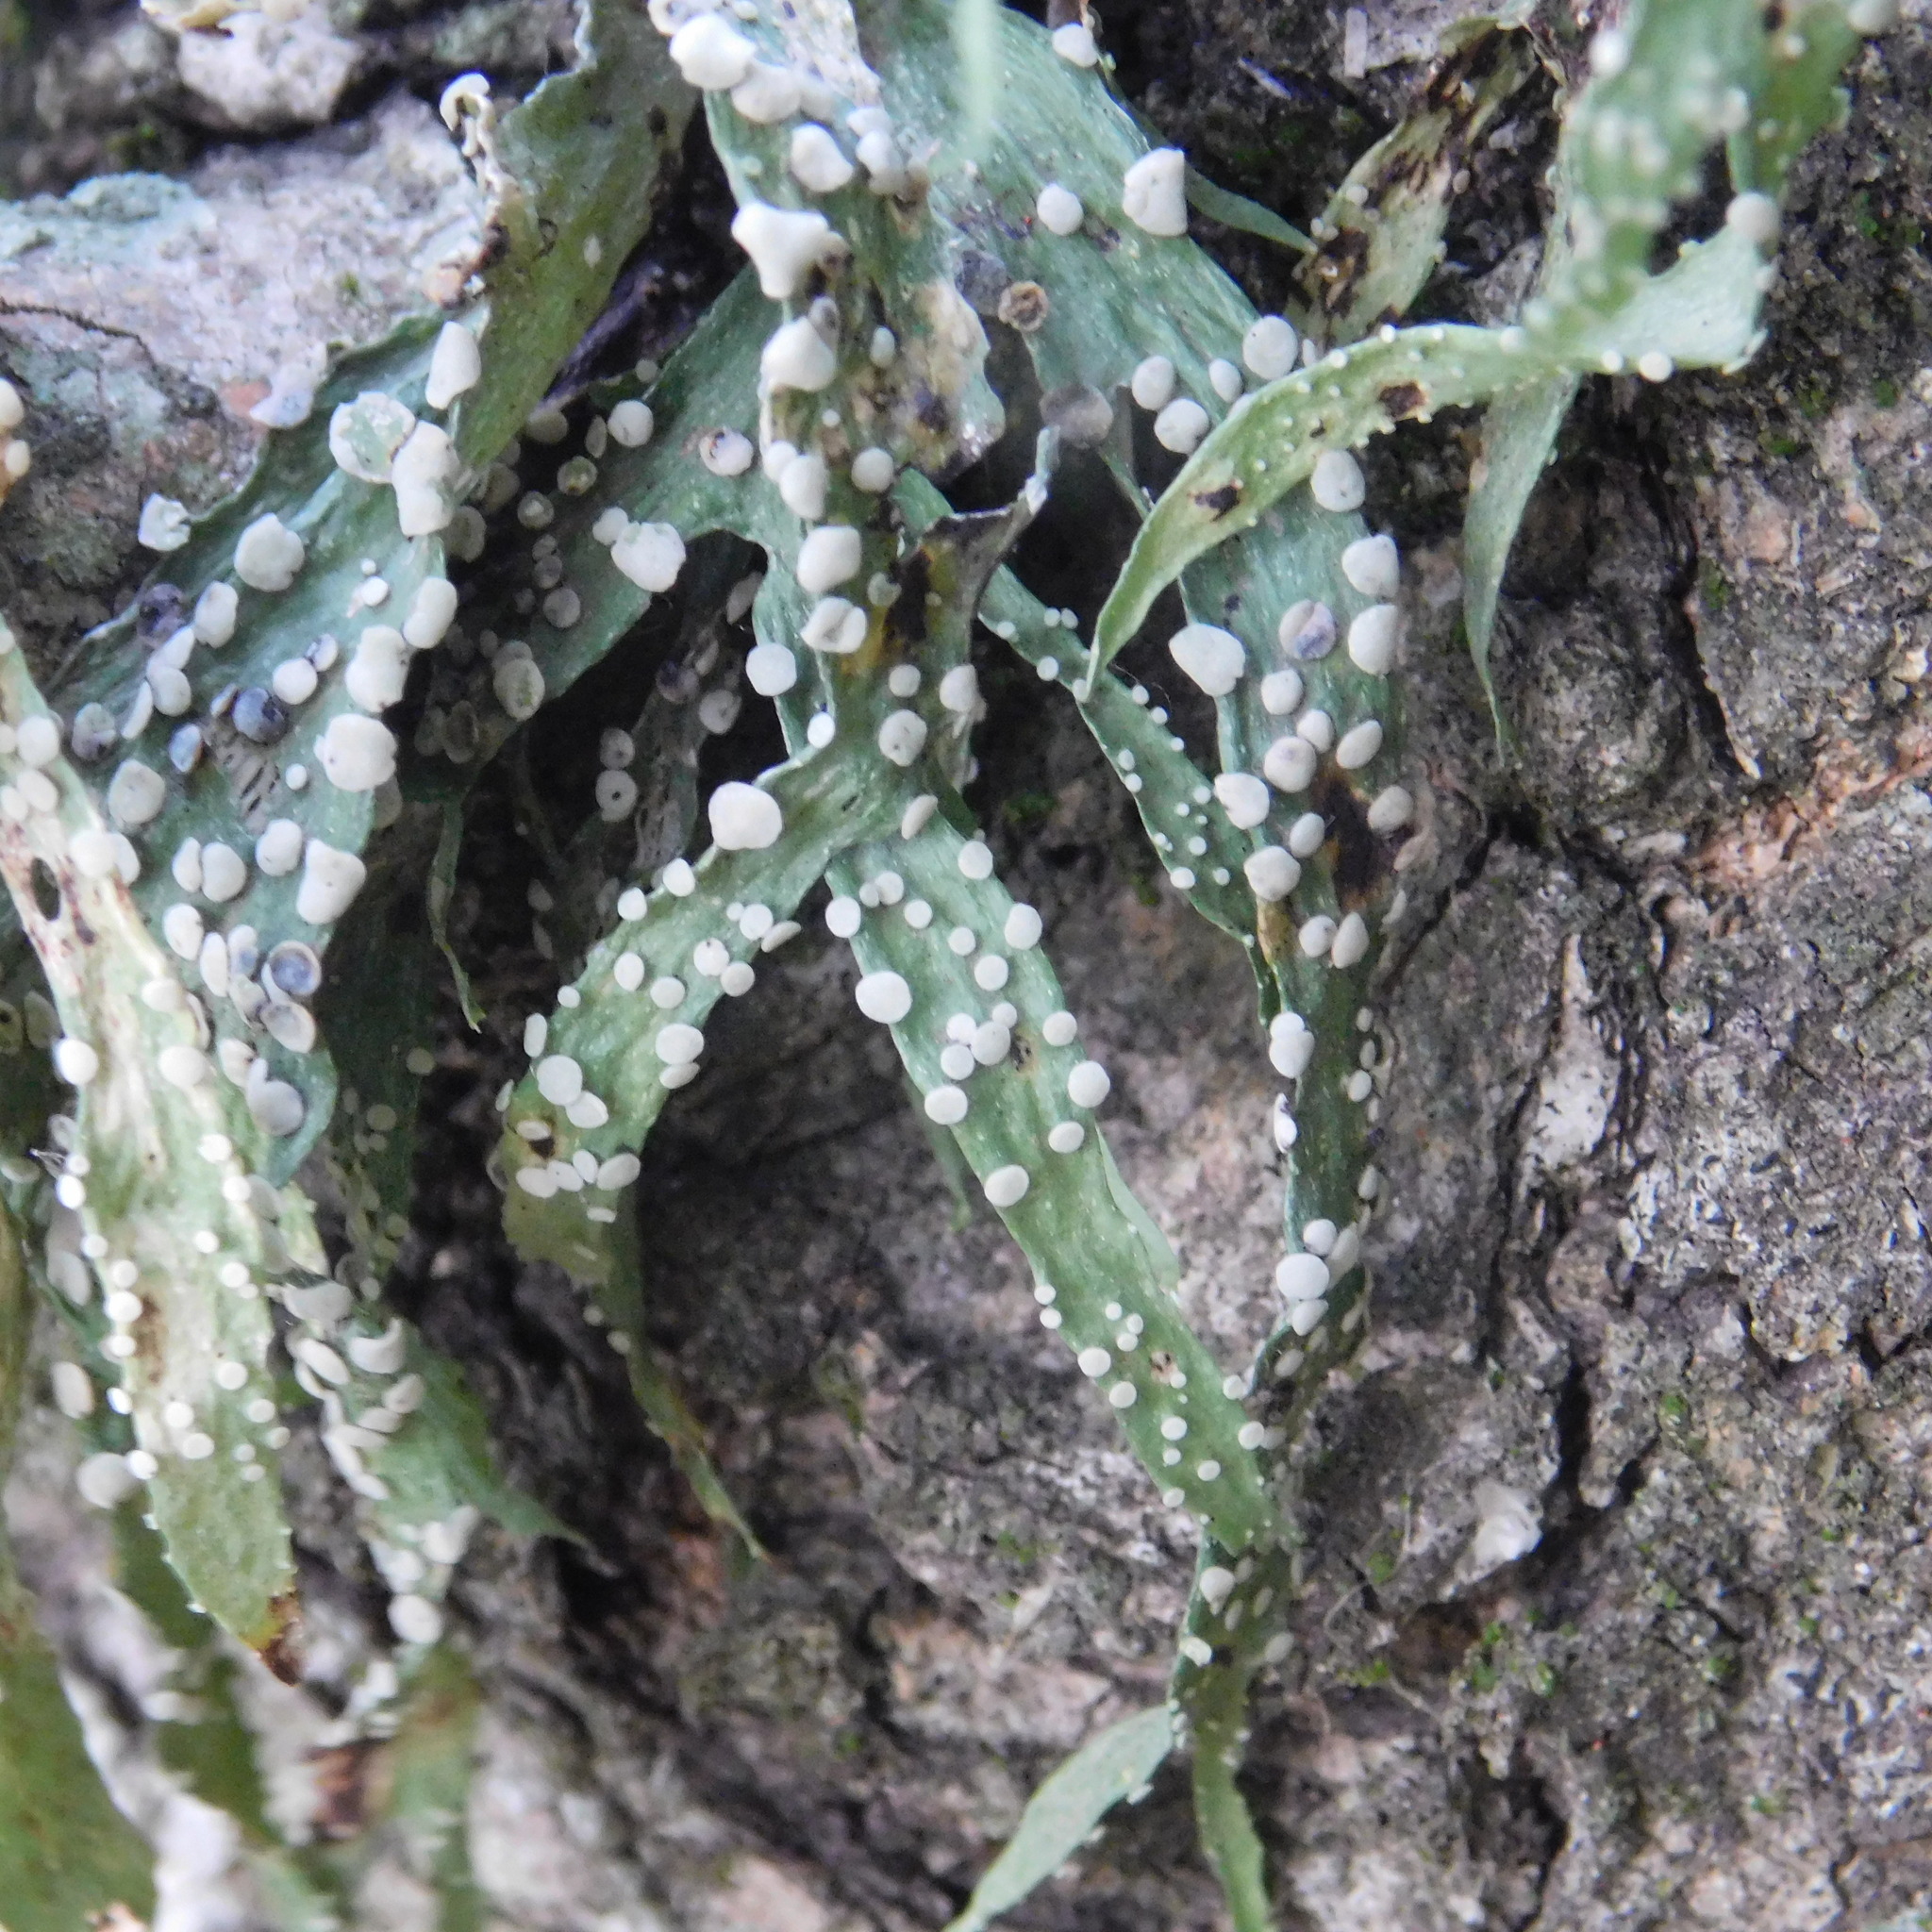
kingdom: Fungi
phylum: Ascomycota
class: Lecanoromycetes
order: Lecanorales
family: Ramalinaceae
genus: Ramalina
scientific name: Ramalina celastri
